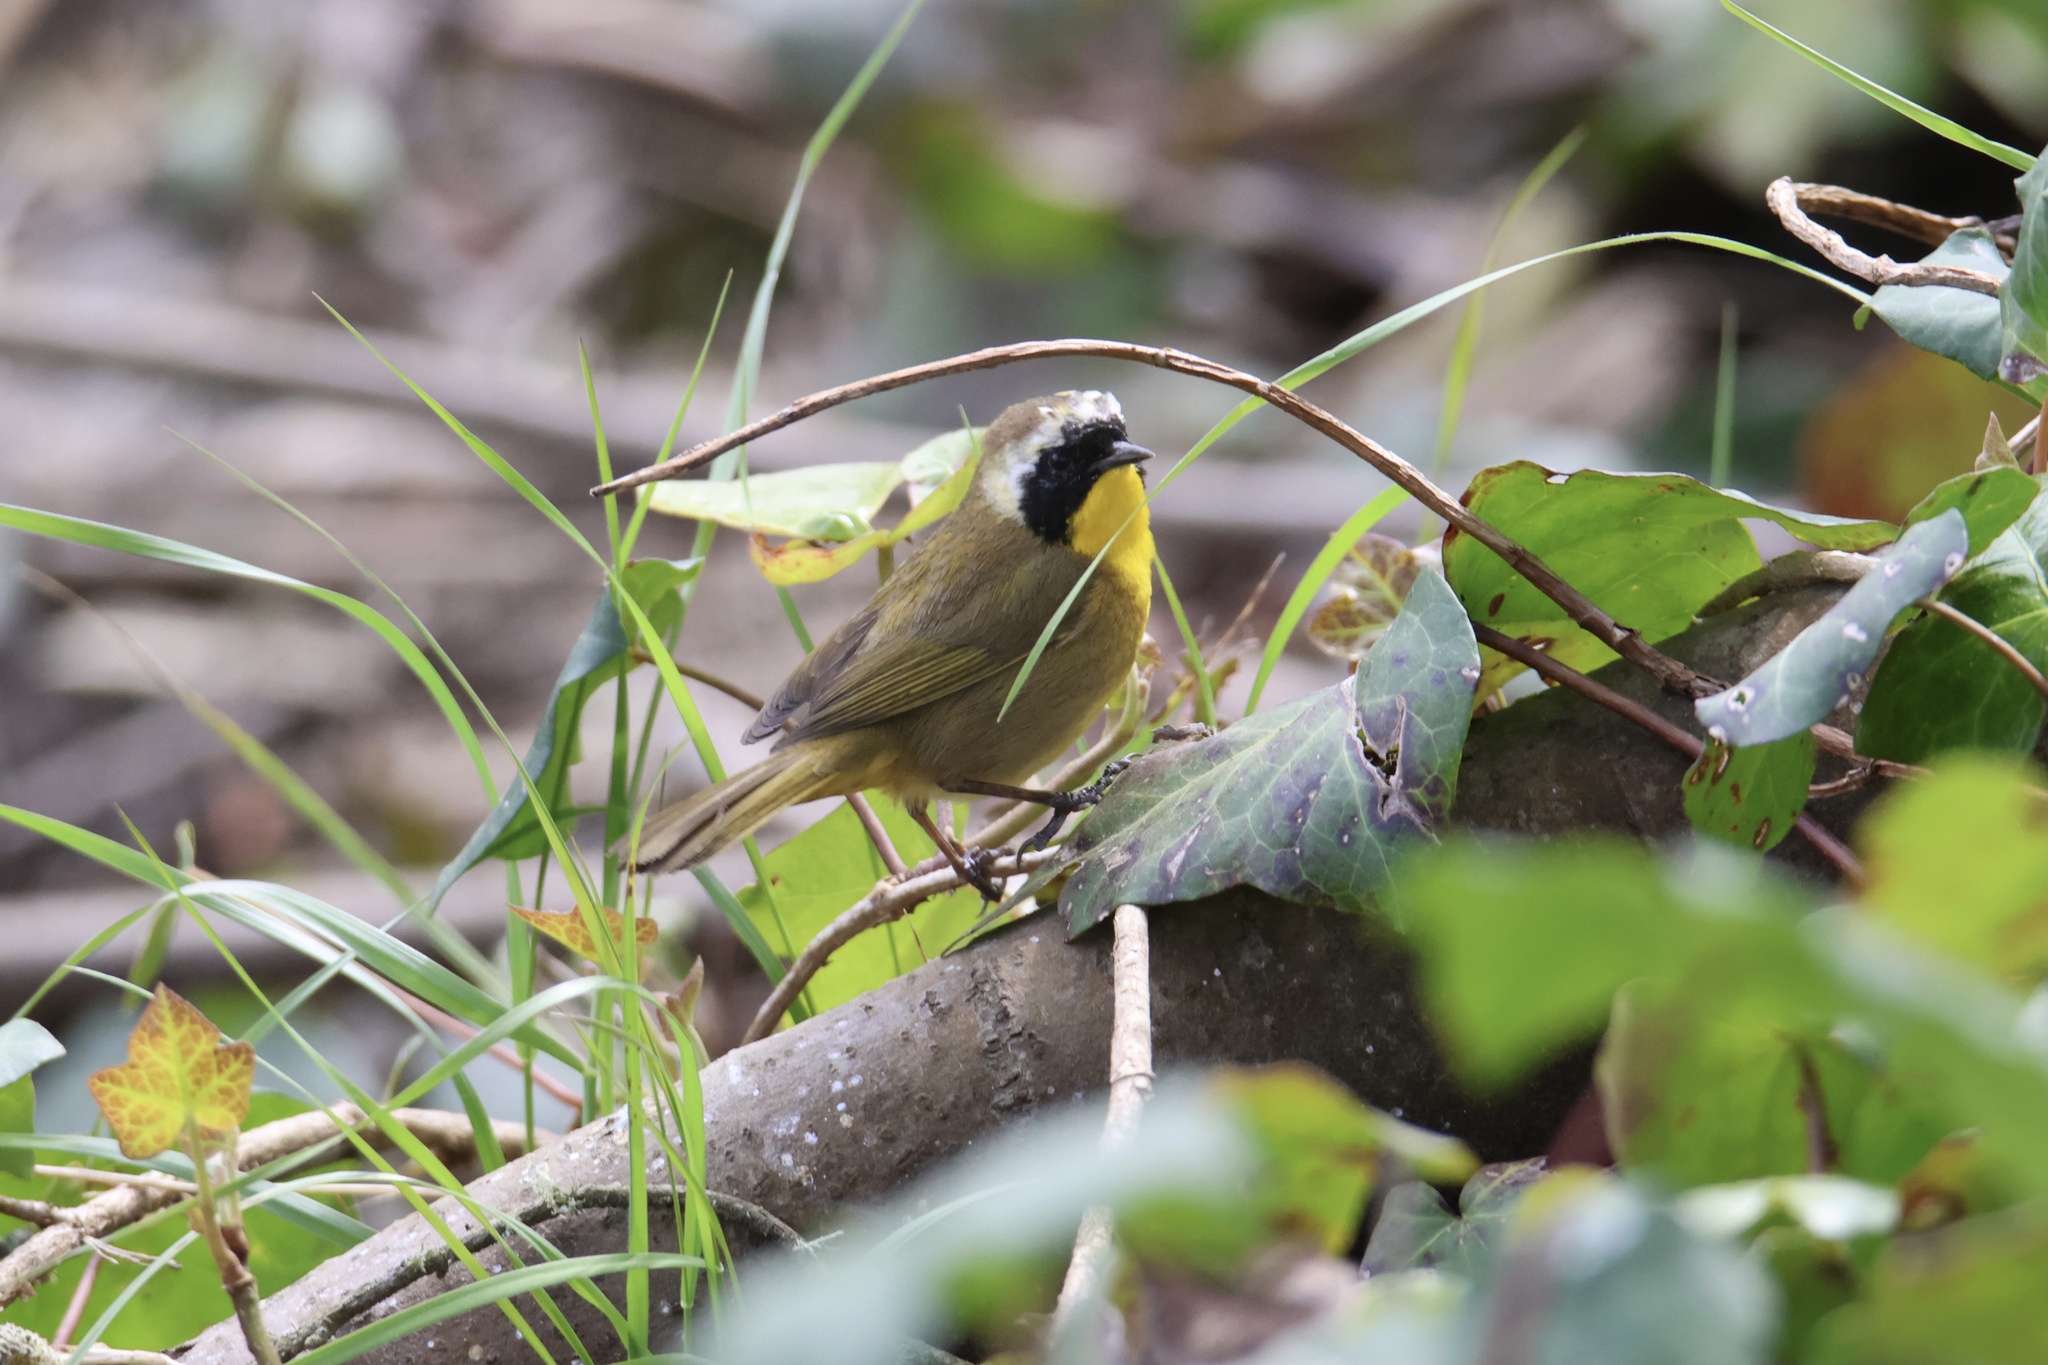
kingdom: Animalia
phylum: Chordata
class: Aves
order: Passeriformes
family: Parulidae
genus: Geothlypis
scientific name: Geothlypis trichas
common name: Common yellowthroat
